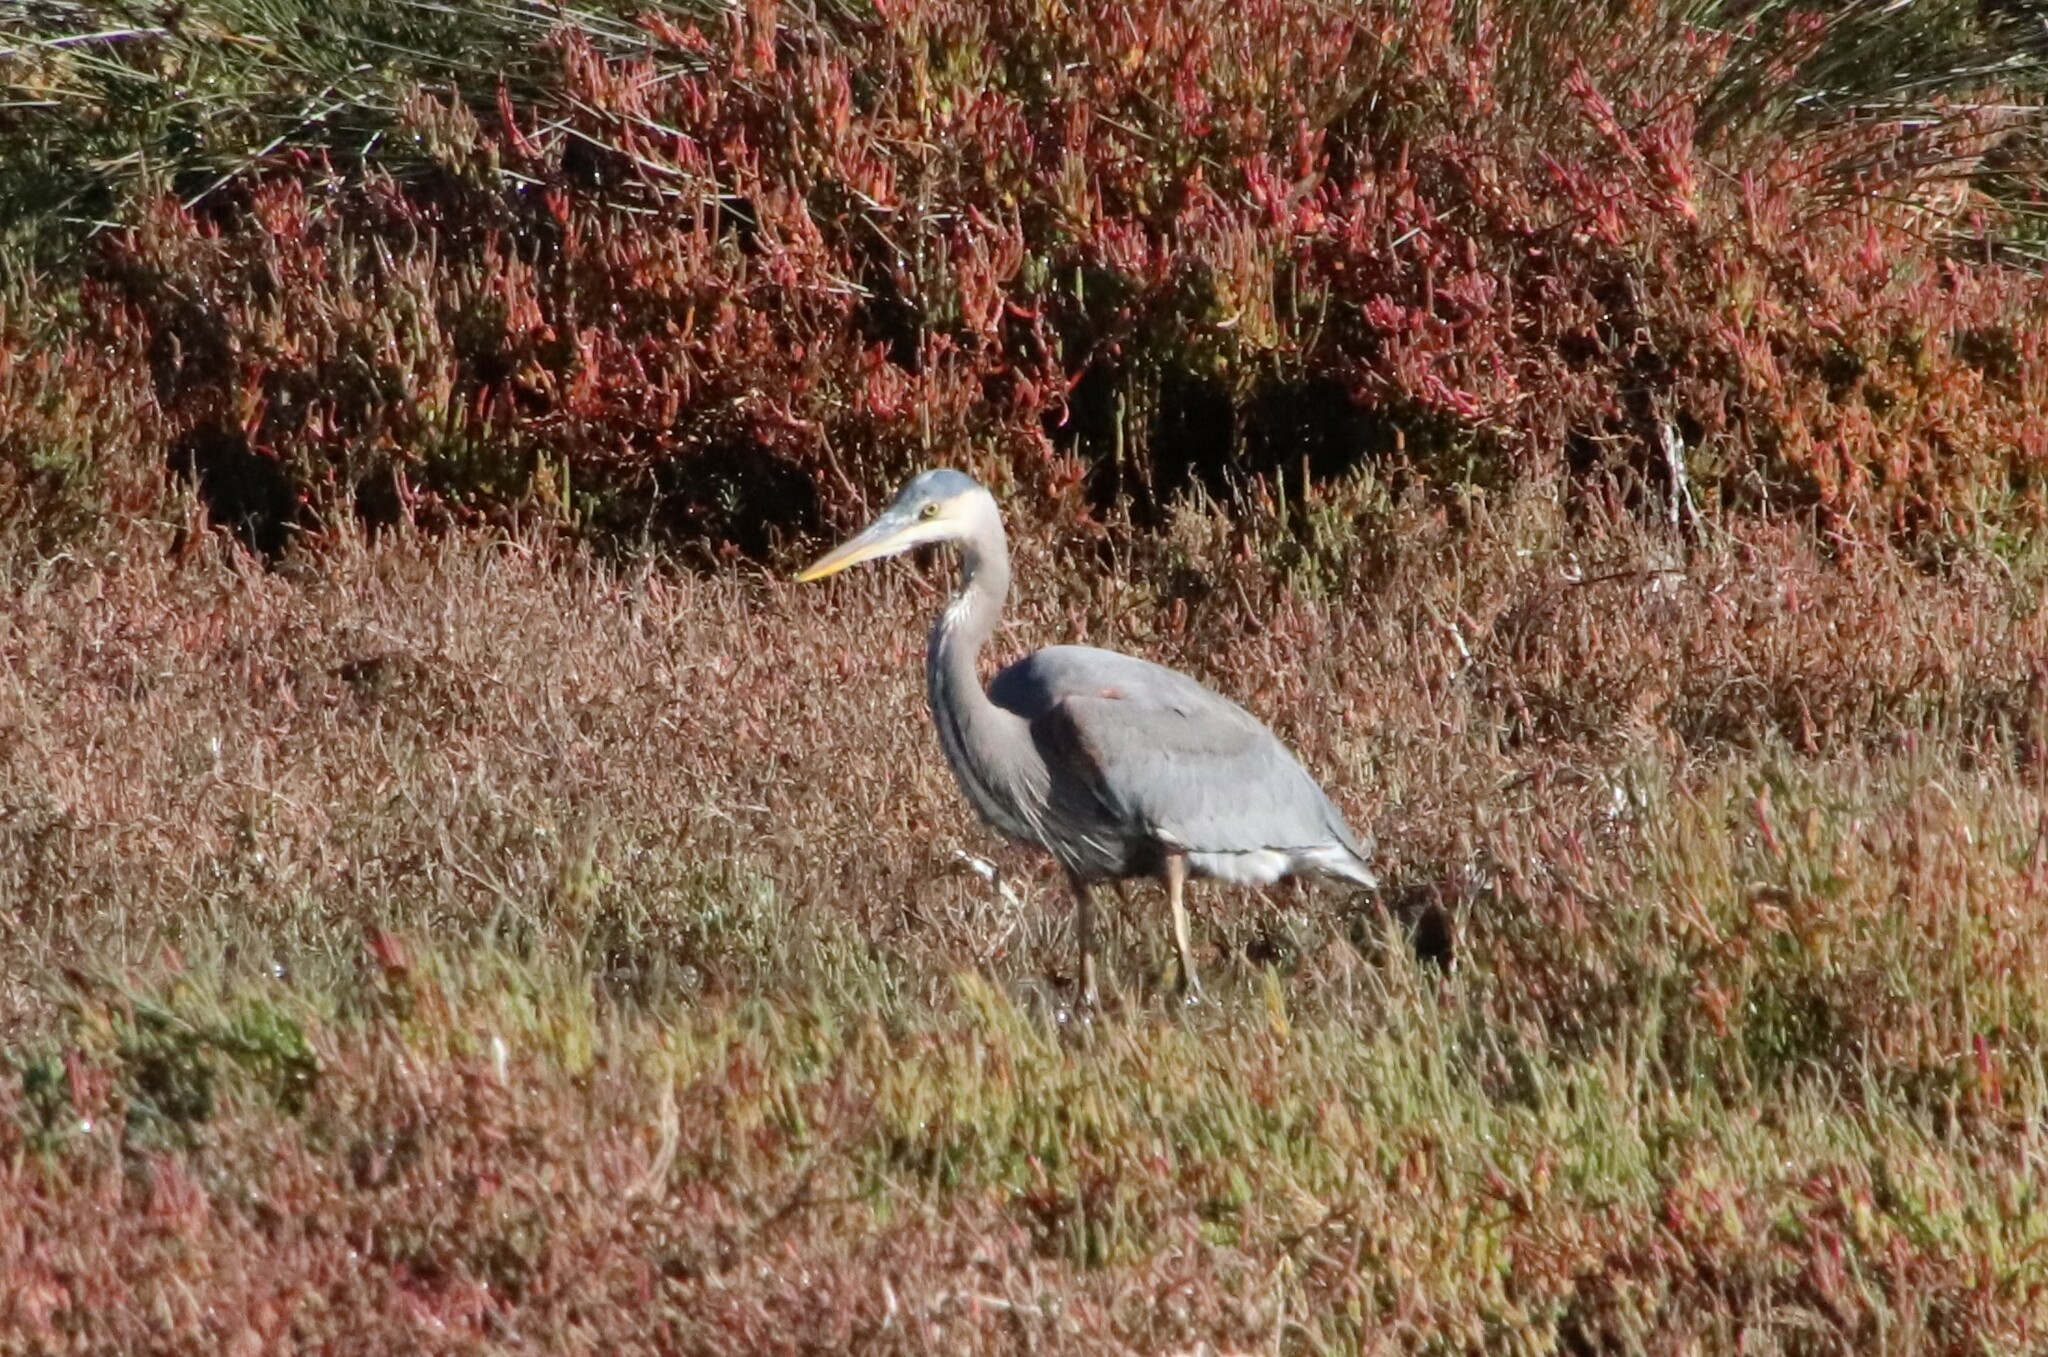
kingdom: Animalia
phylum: Chordata
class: Aves
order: Pelecaniformes
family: Ardeidae
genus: Ardea
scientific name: Ardea herodias
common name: Great blue heron
